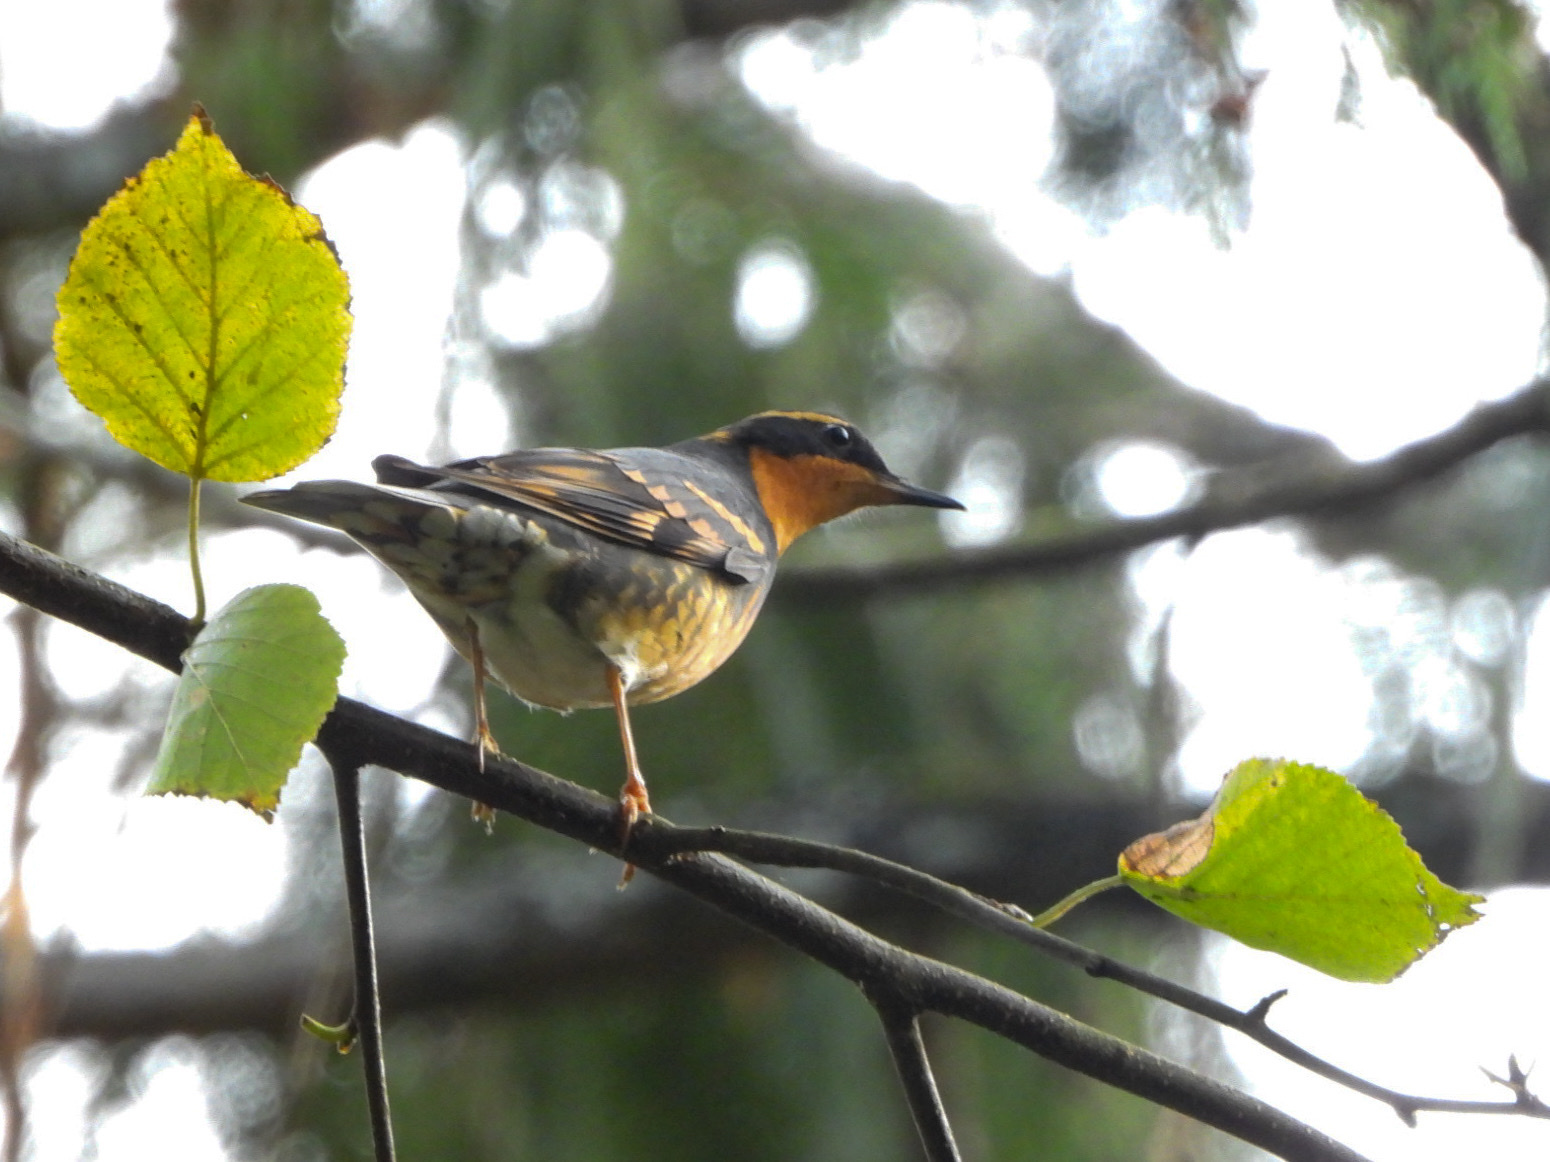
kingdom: Animalia
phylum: Chordata
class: Aves
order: Passeriformes
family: Turdidae
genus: Ixoreus
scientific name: Ixoreus naevius
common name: Varied thrush
